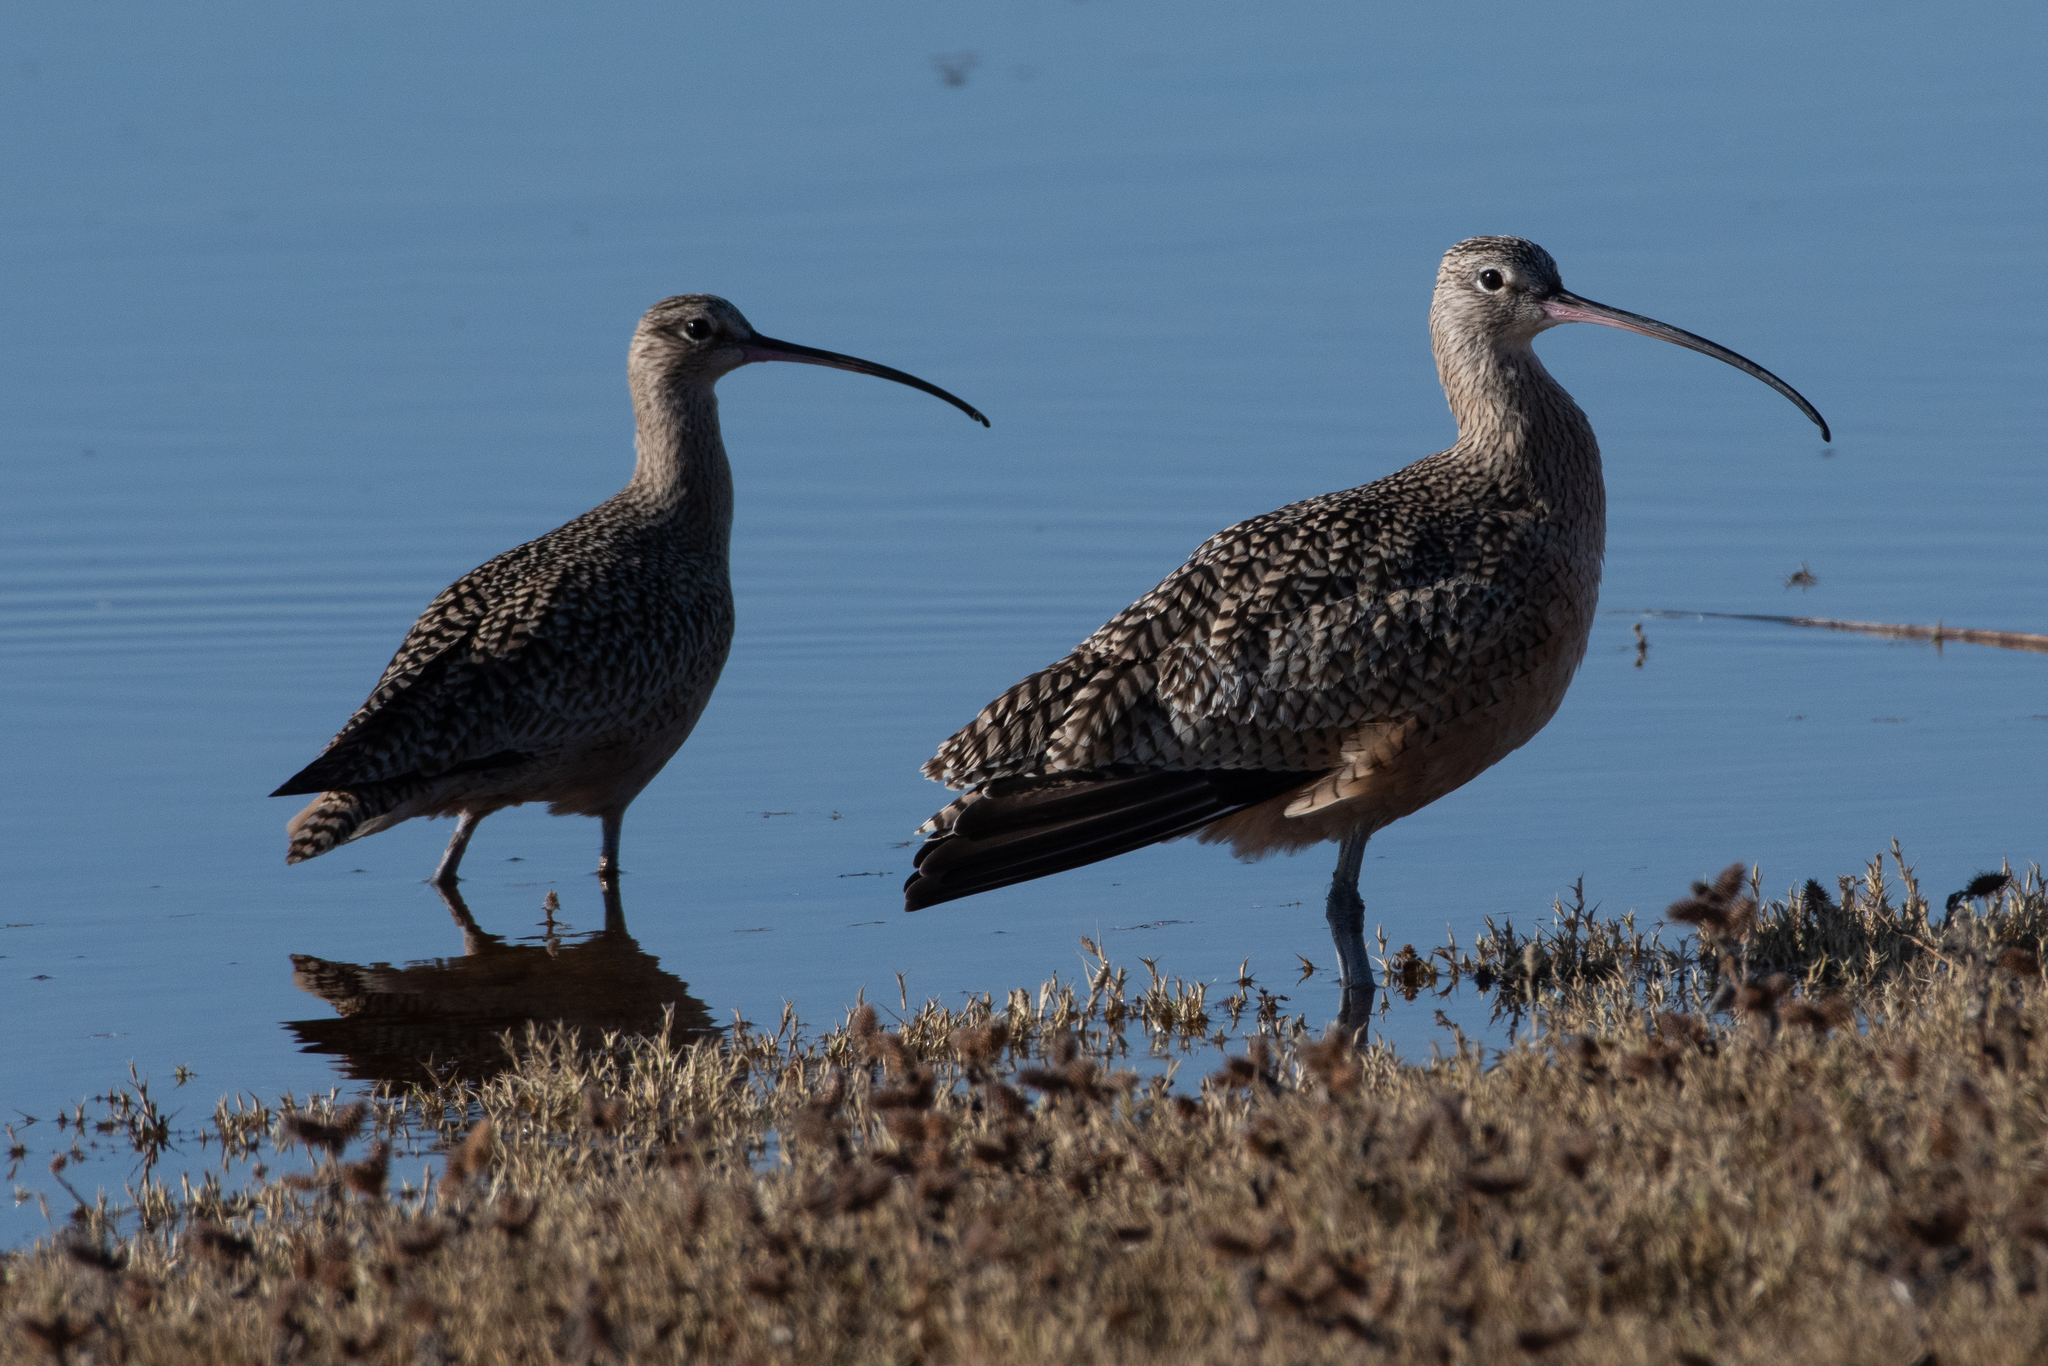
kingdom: Animalia
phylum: Chordata
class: Aves
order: Charadriiformes
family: Scolopacidae
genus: Numenius
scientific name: Numenius americanus
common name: Long-billed curlew
